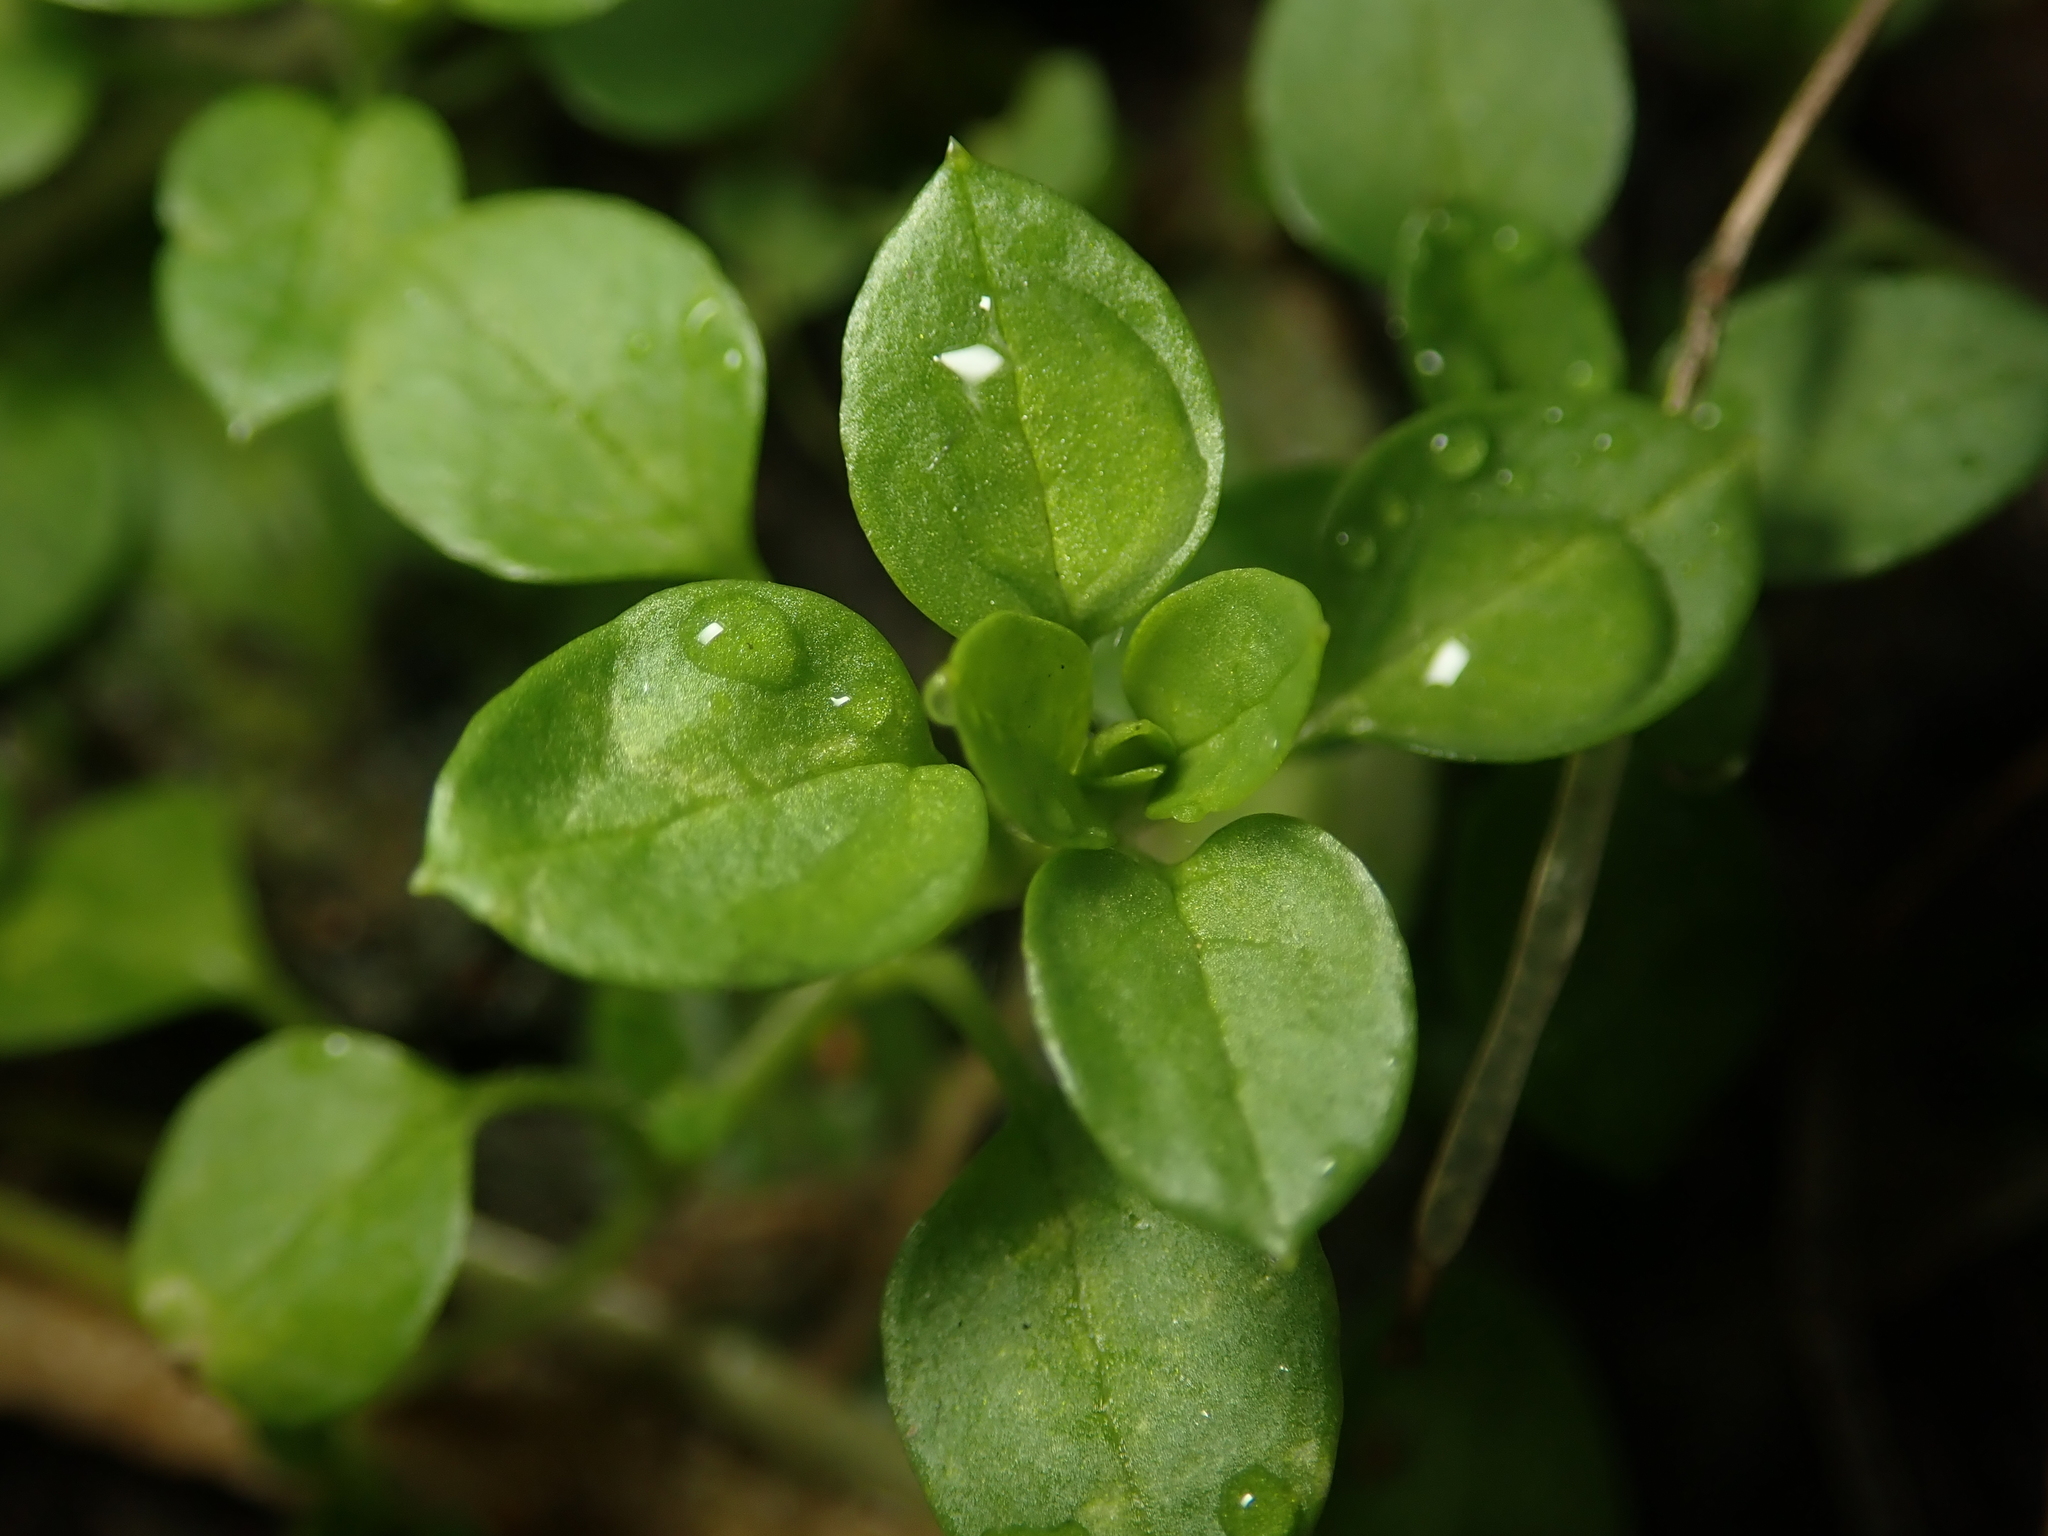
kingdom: Plantae
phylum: Tracheophyta
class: Magnoliopsida
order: Caryophyllales
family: Caryophyllaceae
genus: Stellaria
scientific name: Stellaria media
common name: Common chickweed
